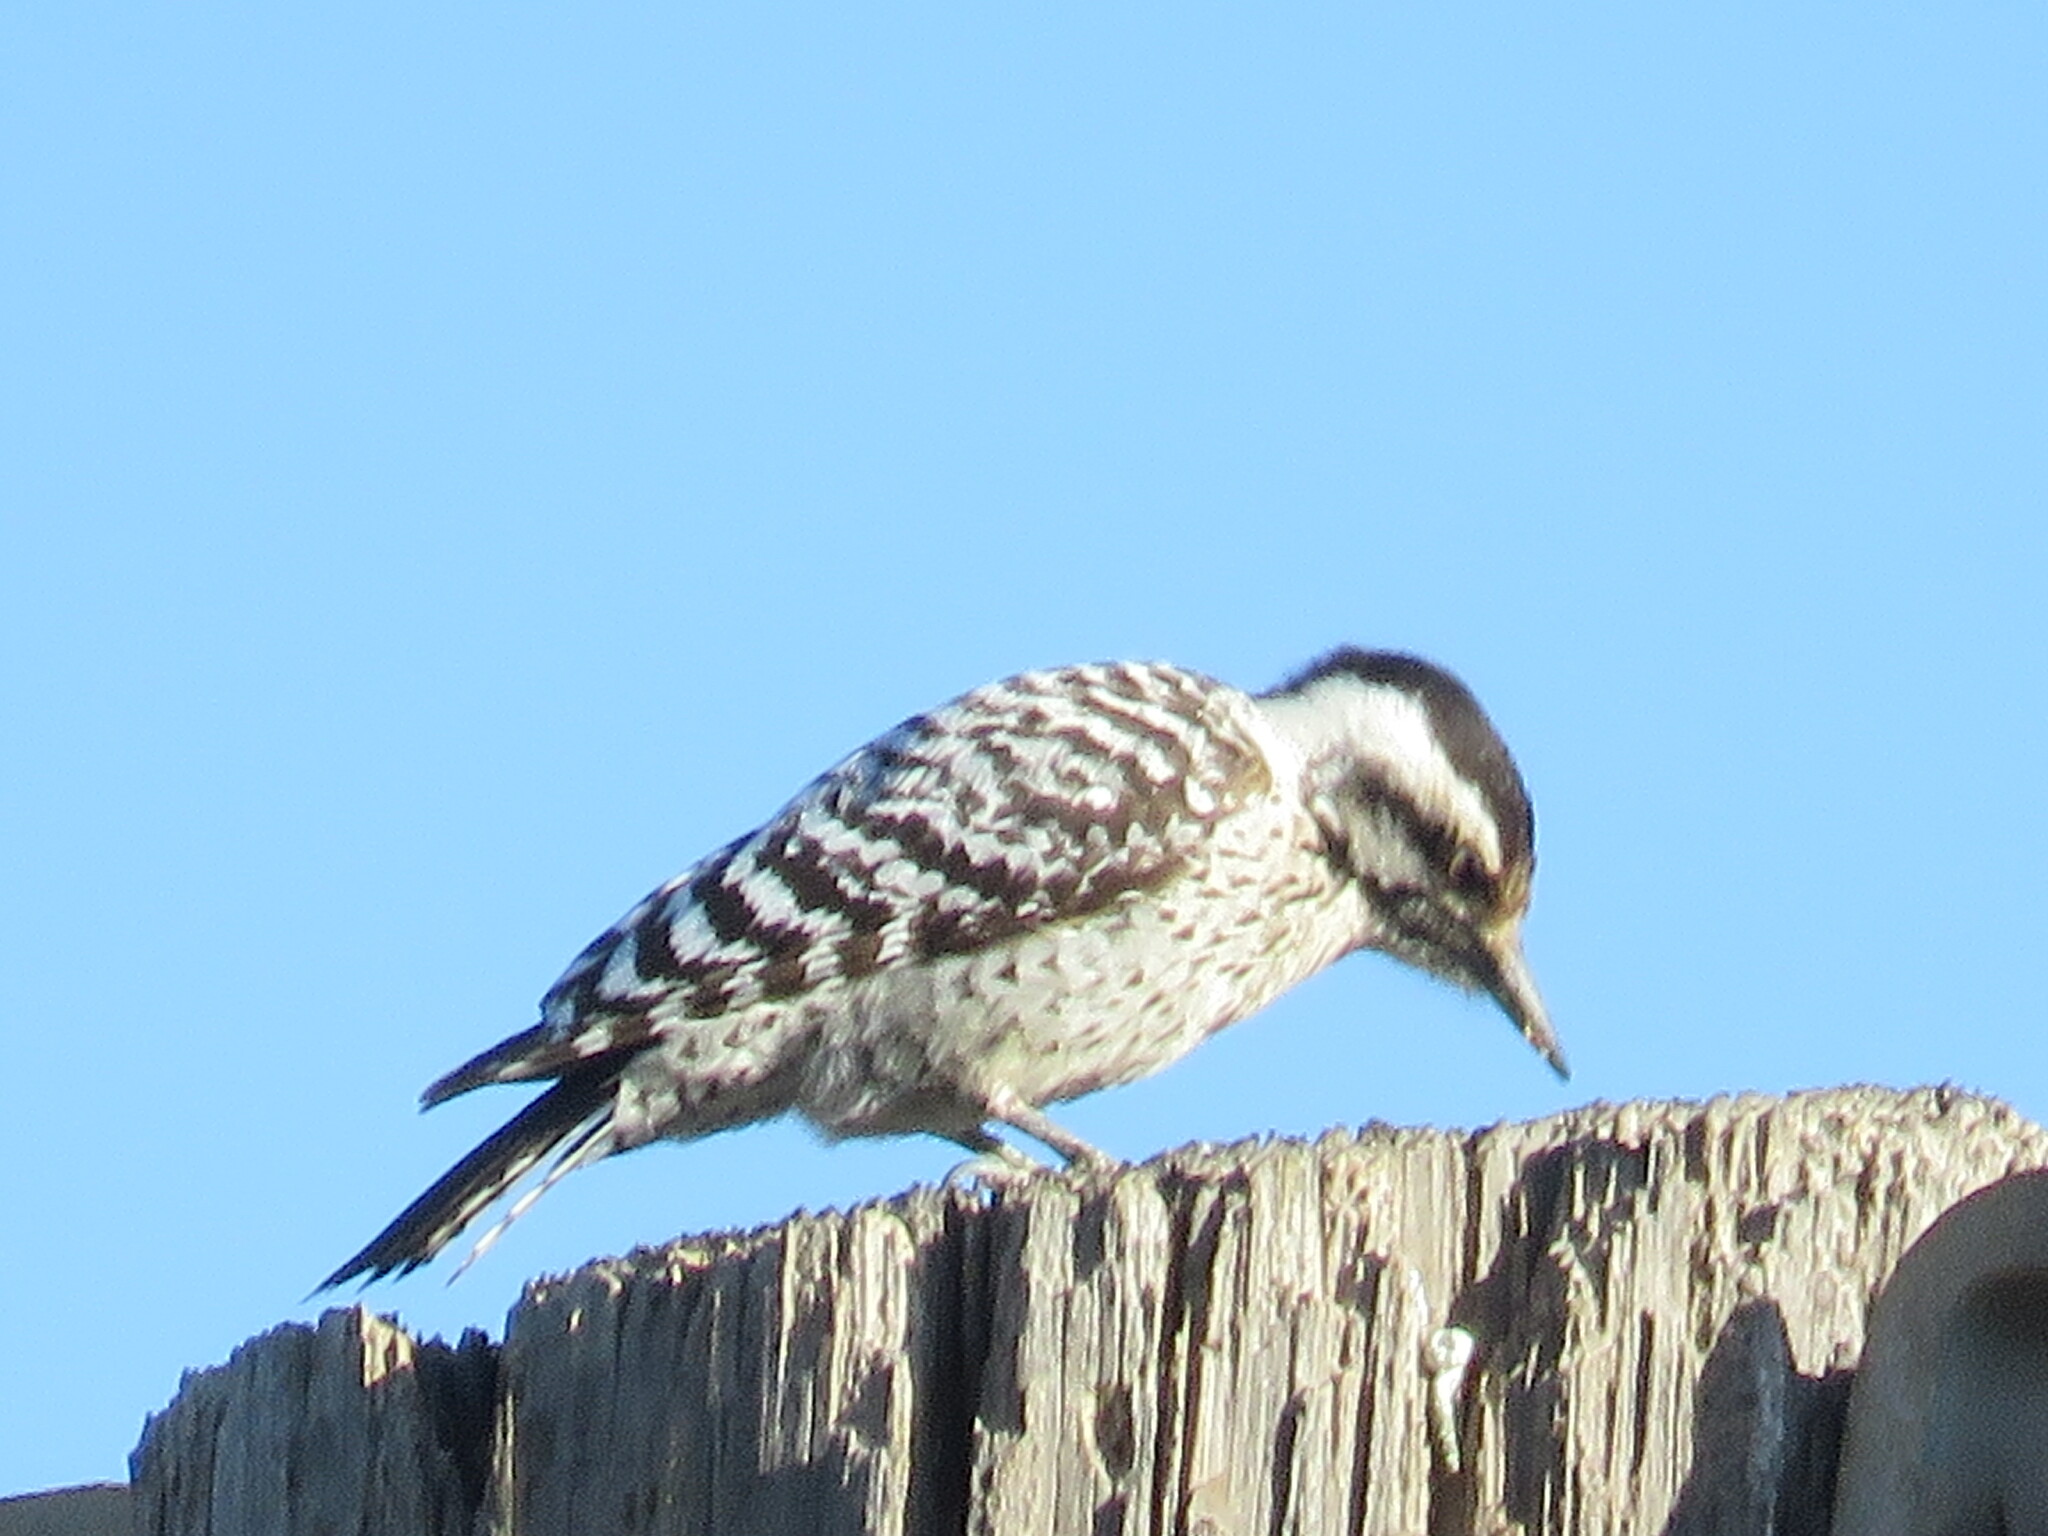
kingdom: Animalia
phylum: Chordata
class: Aves
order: Piciformes
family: Picidae
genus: Dryobates
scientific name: Dryobates scalaris
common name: Ladder-backed woodpecker
